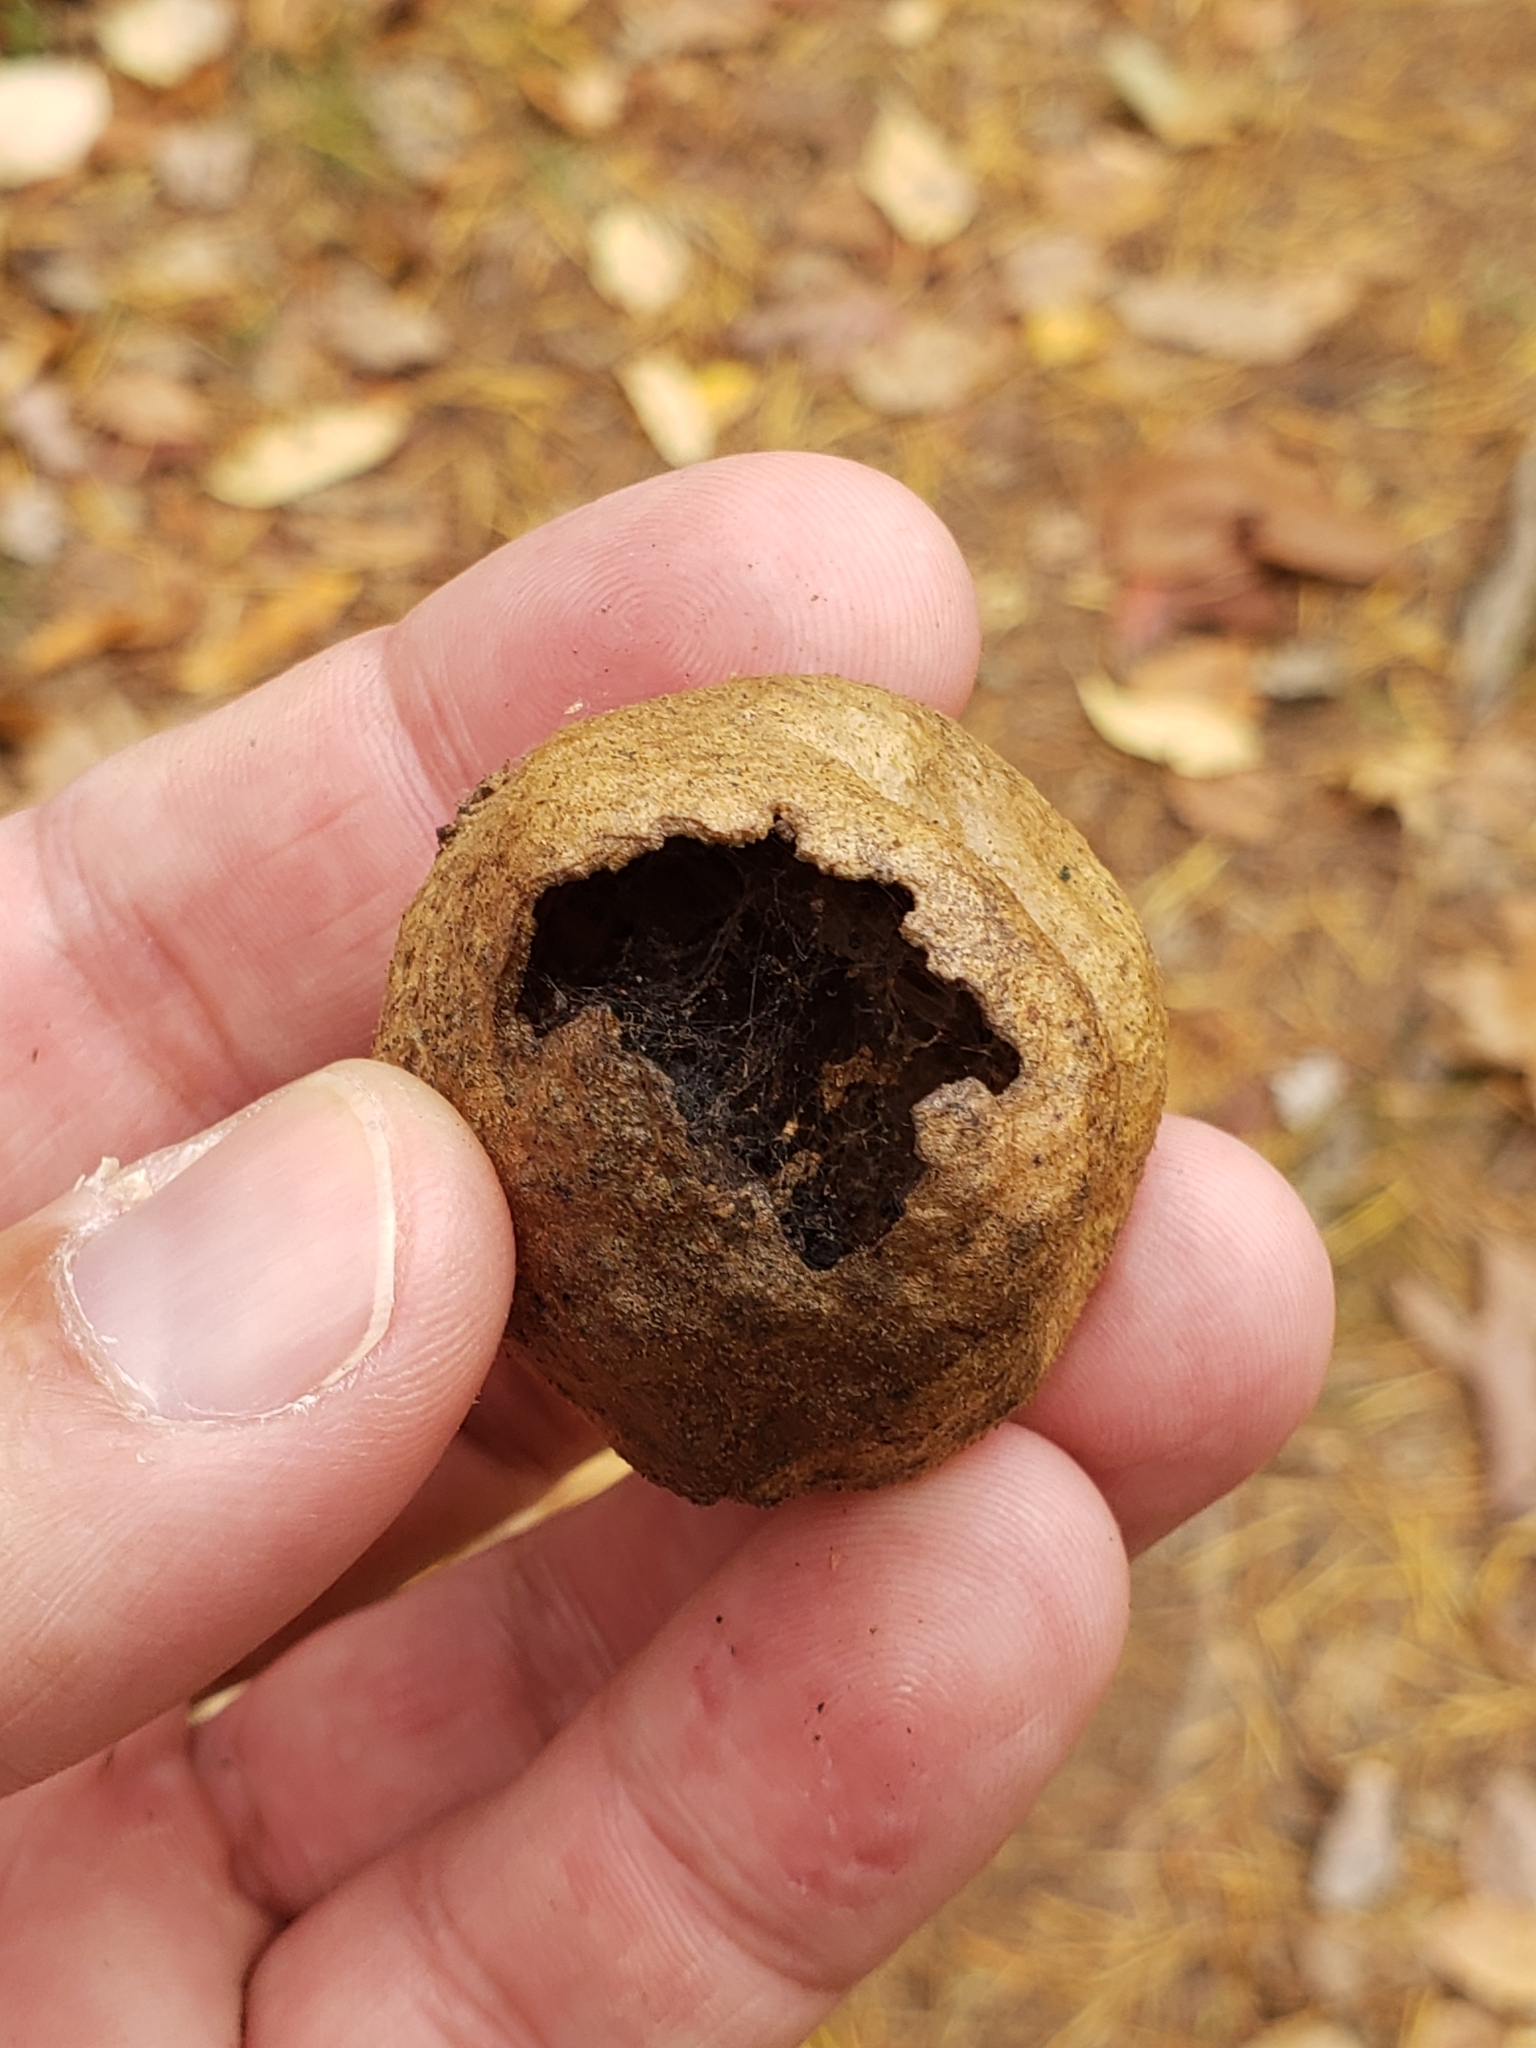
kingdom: Animalia
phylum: Arthropoda
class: Insecta
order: Hymenoptera
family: Cynipidae
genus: Amphibolips
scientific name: Amphibolips
